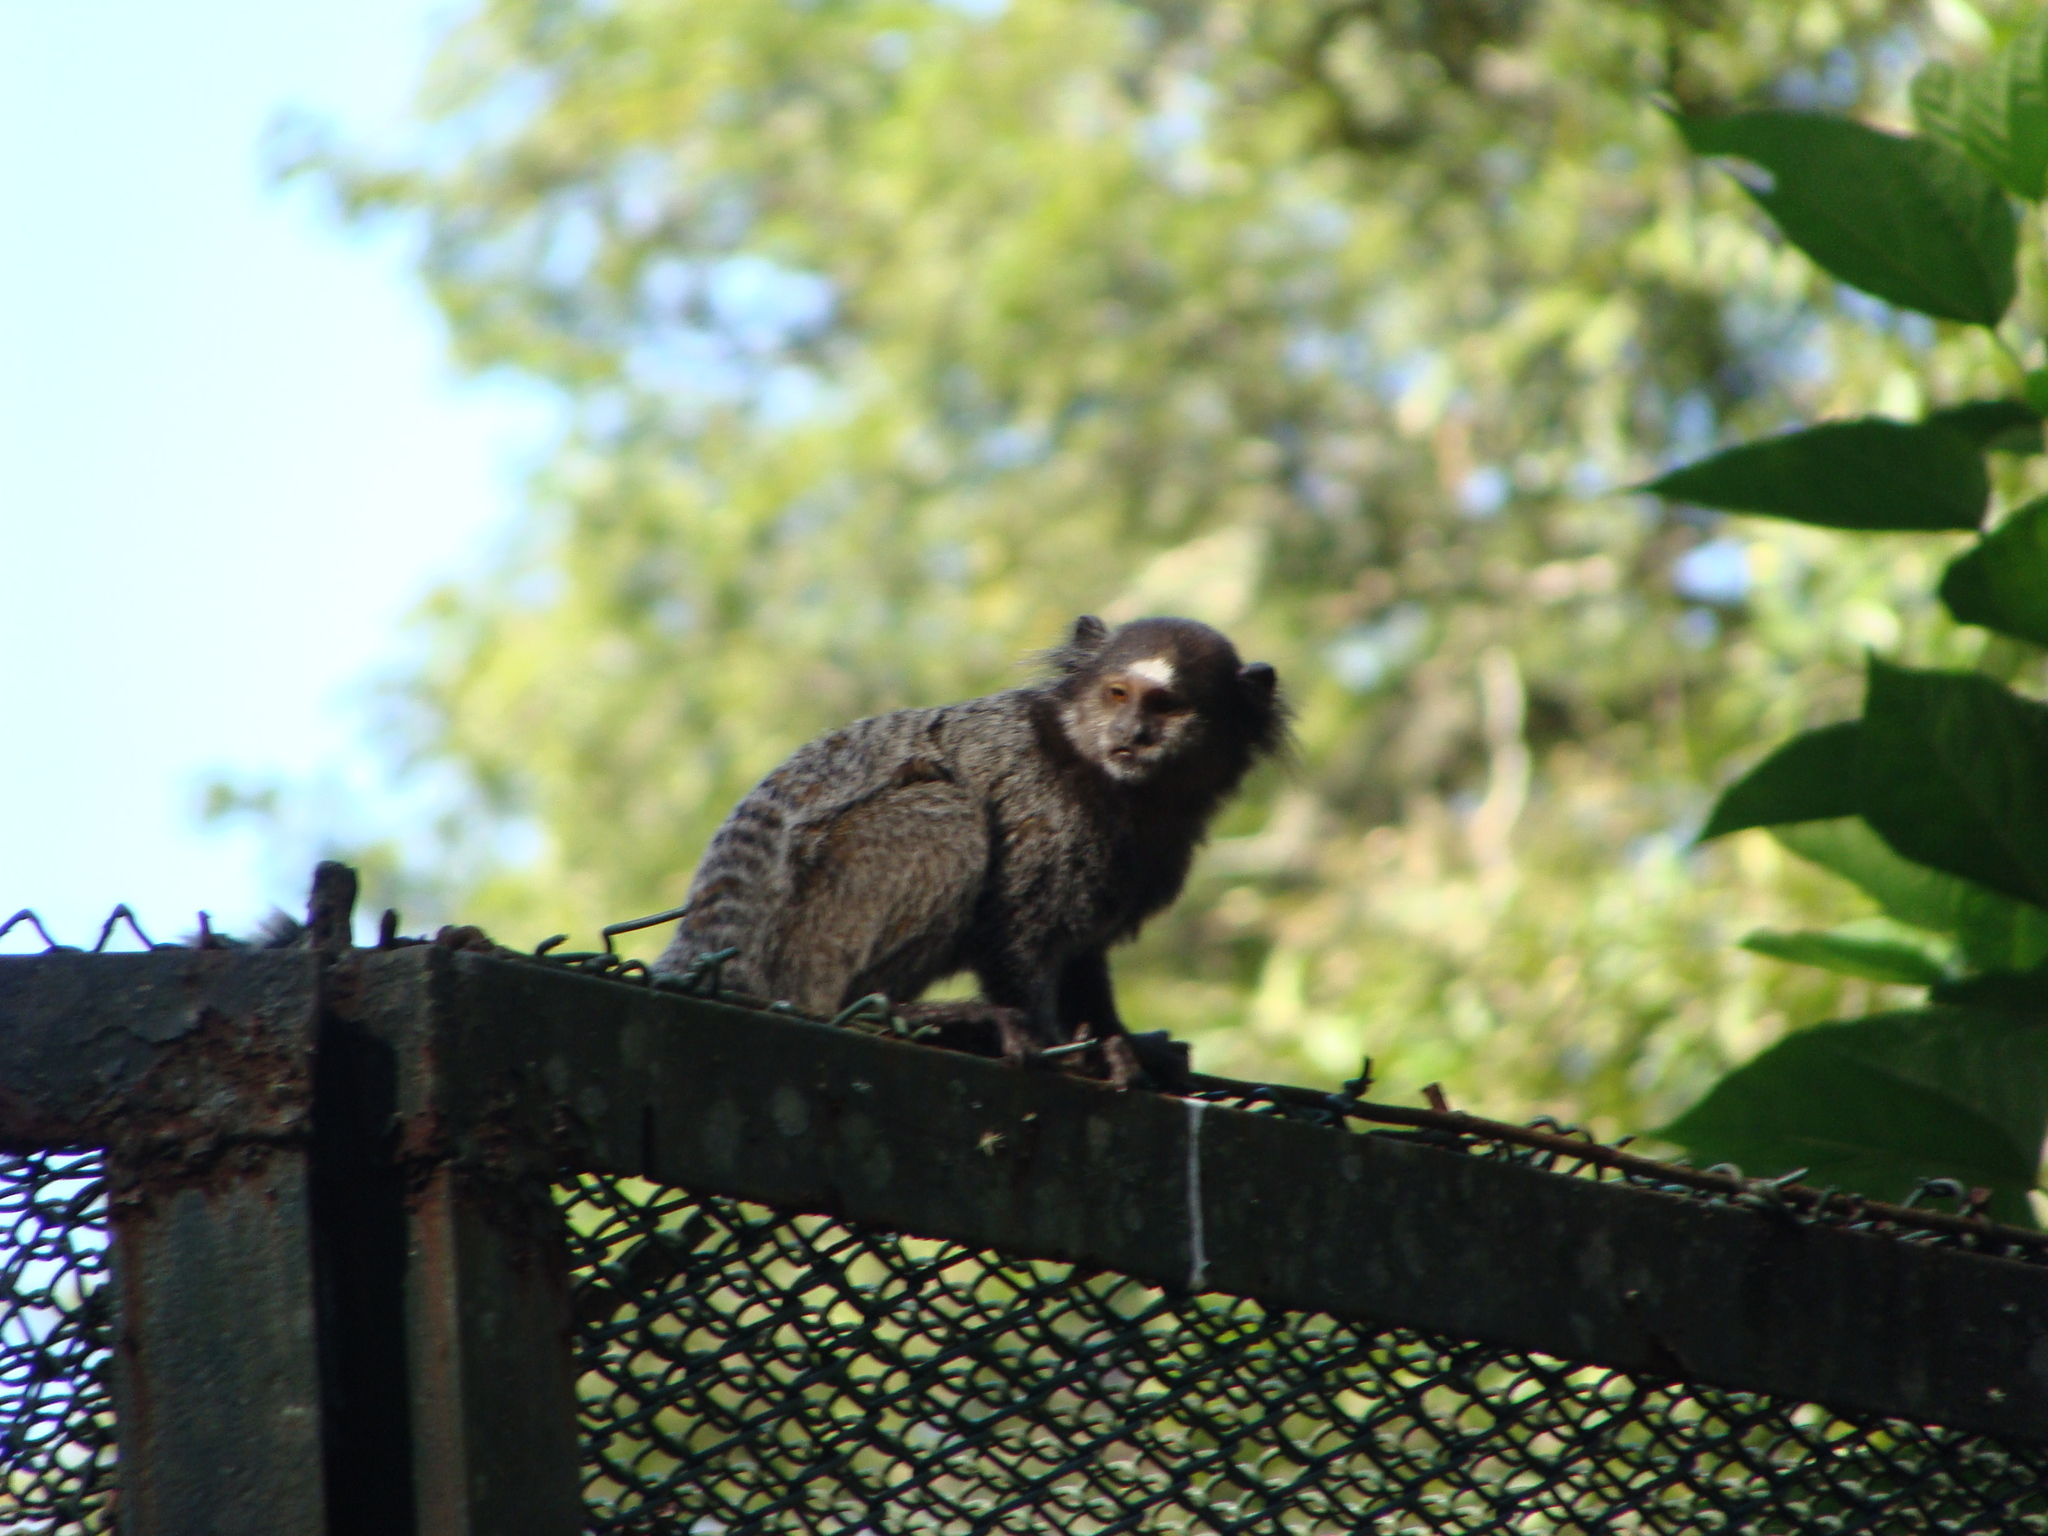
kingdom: Animalia
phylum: Chordata
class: Mammalia
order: Primates
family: Callitrichidae
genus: Callithrix
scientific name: Callithrix penicillata
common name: Black-tufted marmoset
